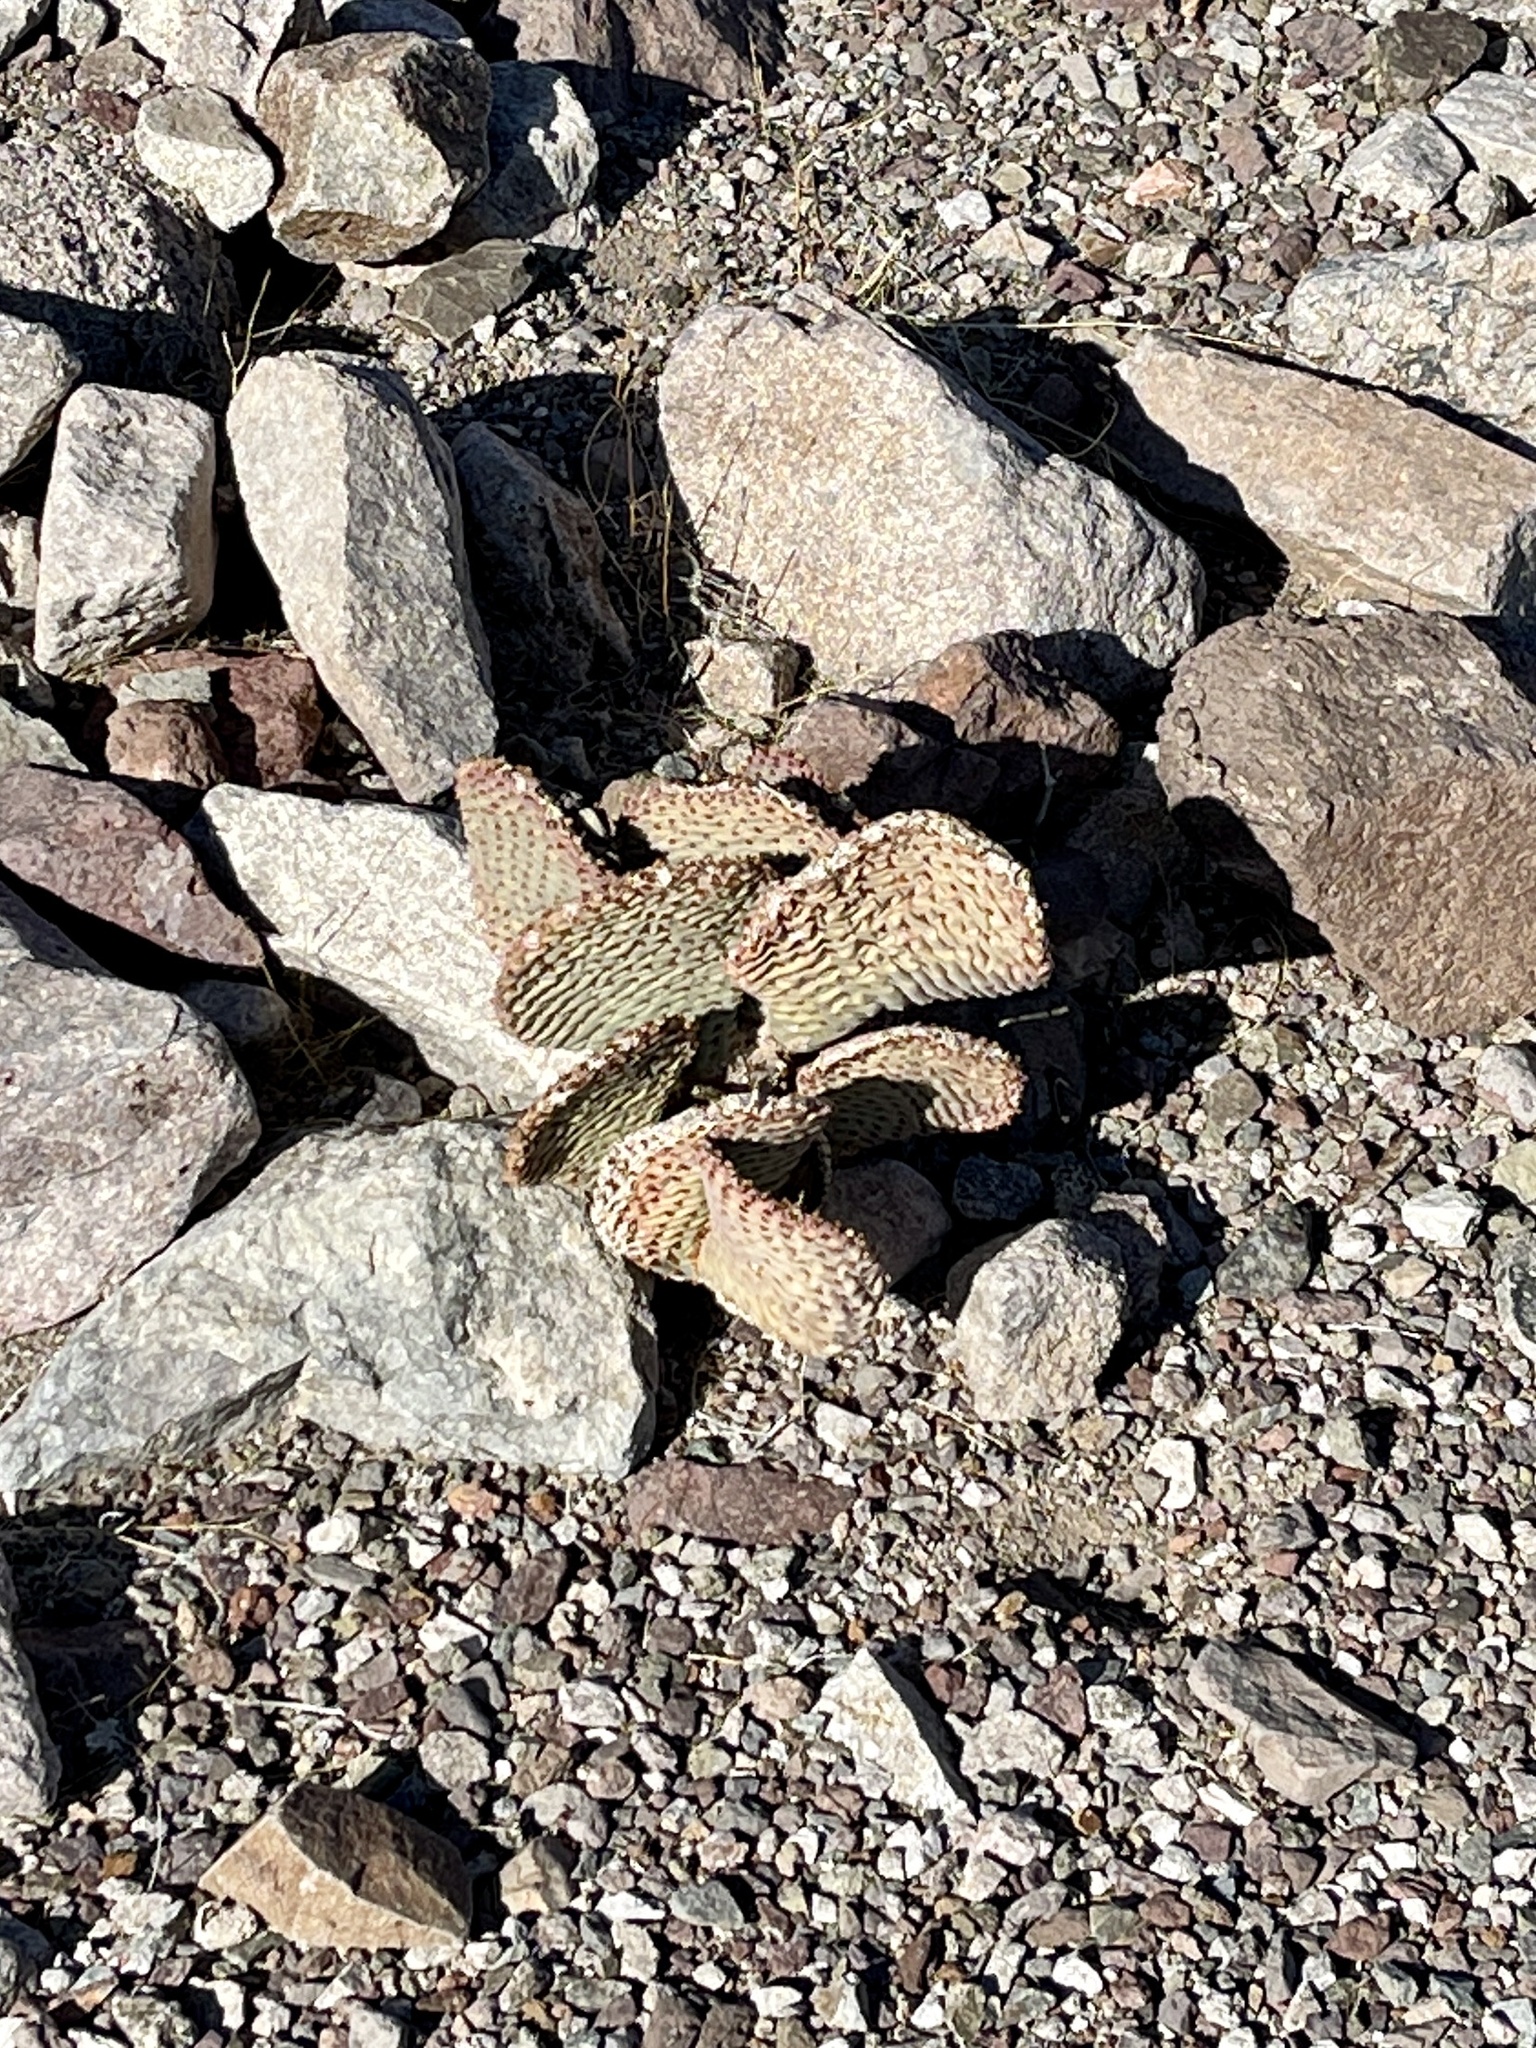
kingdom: Plantae
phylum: Tracheophyta
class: Magnoliopsida
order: Caryophyllales
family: Cactaceae
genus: Opuntia
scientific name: Opuntia basilaris
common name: Beavertail prickly-pear
